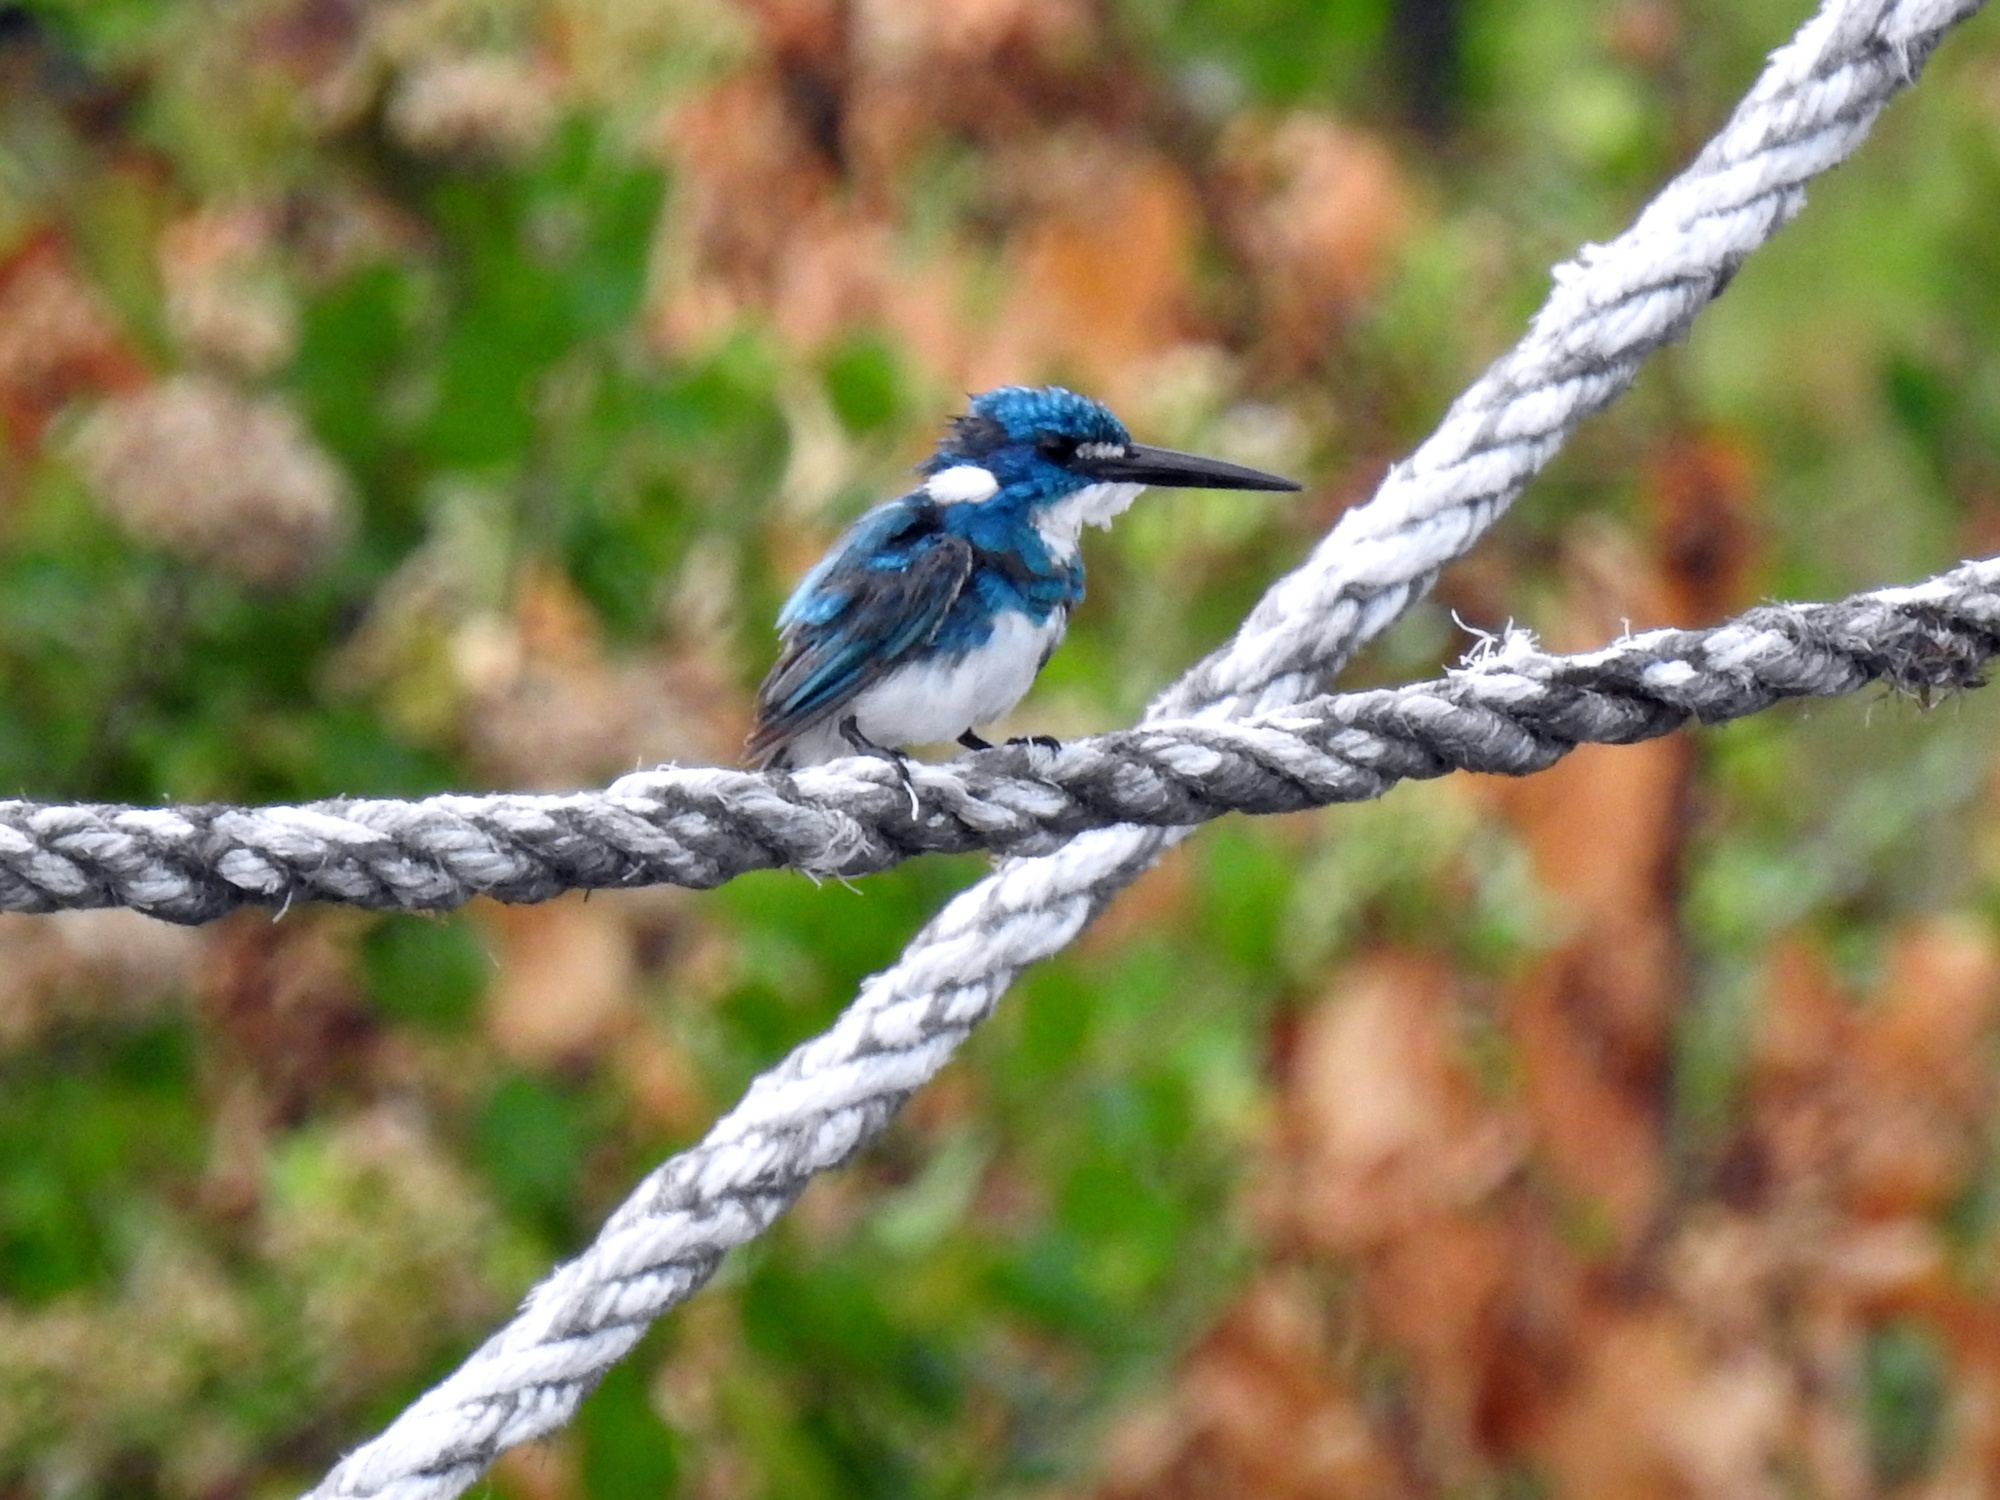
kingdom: Animalia
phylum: Chordata
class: Aves
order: Coraciiformes
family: Alcedinidae
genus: Alcedo
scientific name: Alcedo coerulescens
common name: Cerulean kingfisher
